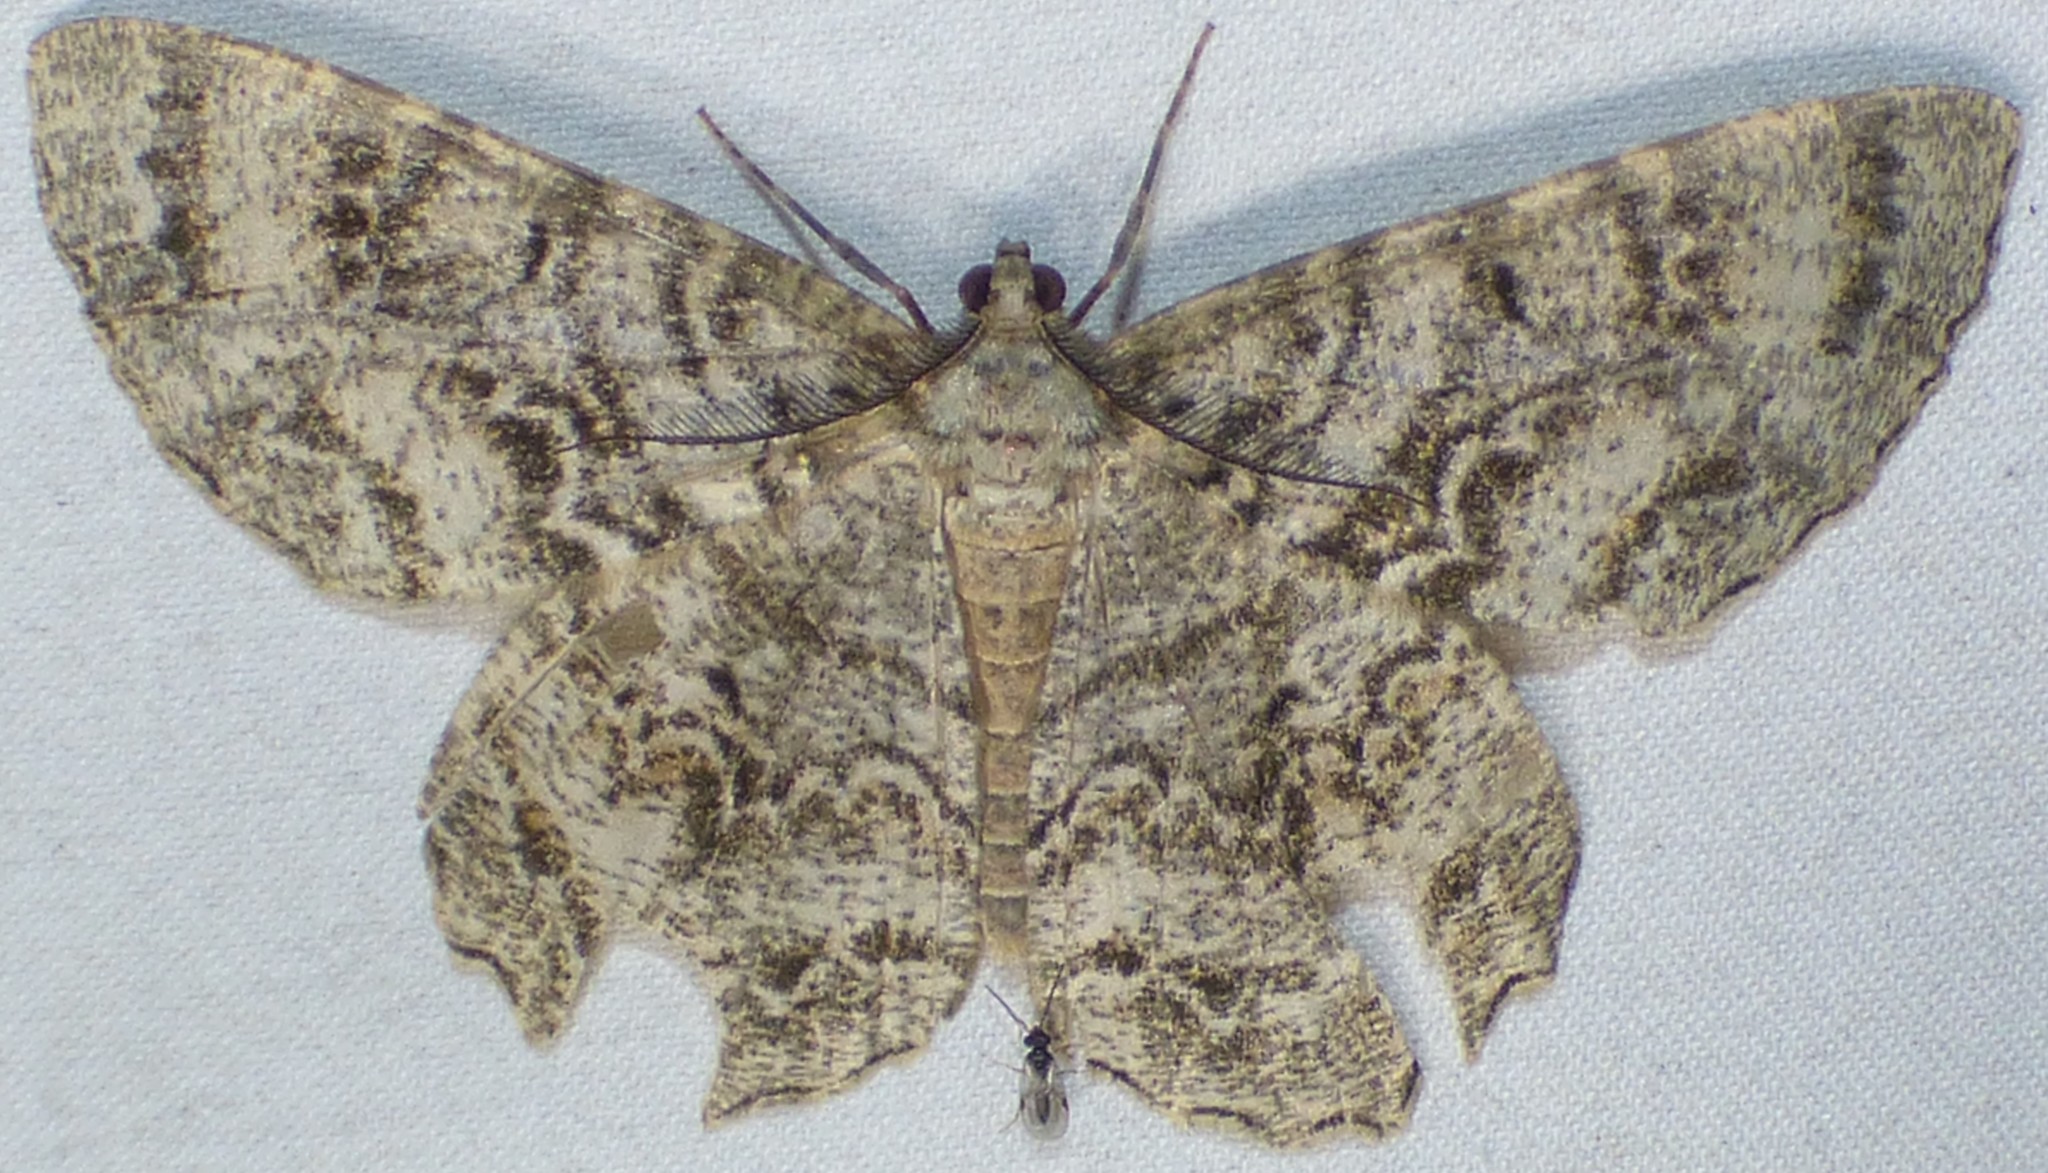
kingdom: Animalia
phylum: Arthropoda
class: Insecta
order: Lepidoptera
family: Geometridae
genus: Epimecis
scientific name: Epimecis hortaria
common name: Tulip-tree beauty
